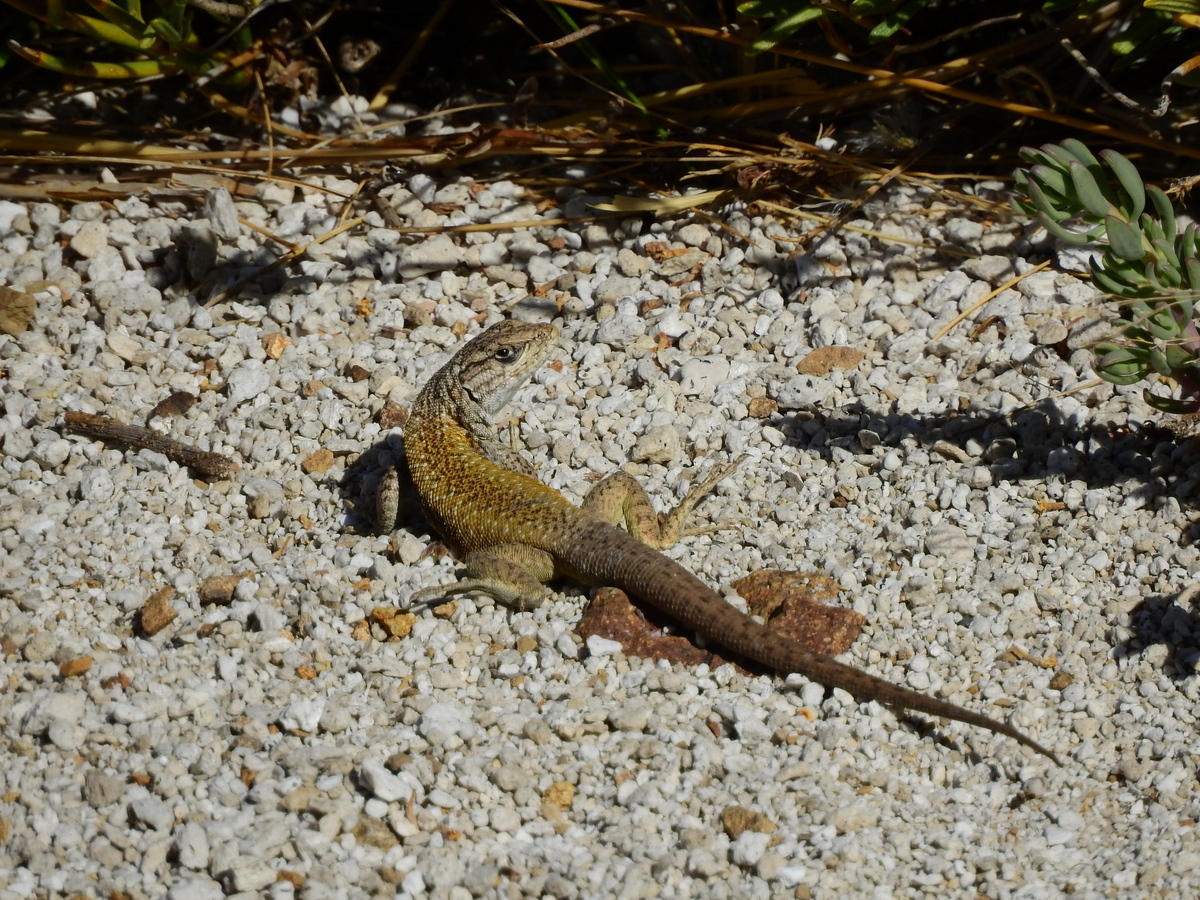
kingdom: Animalia
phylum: Chordata
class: Squamata
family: Liolaemidae
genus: Liolaemus
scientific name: Liolaemus smaug
